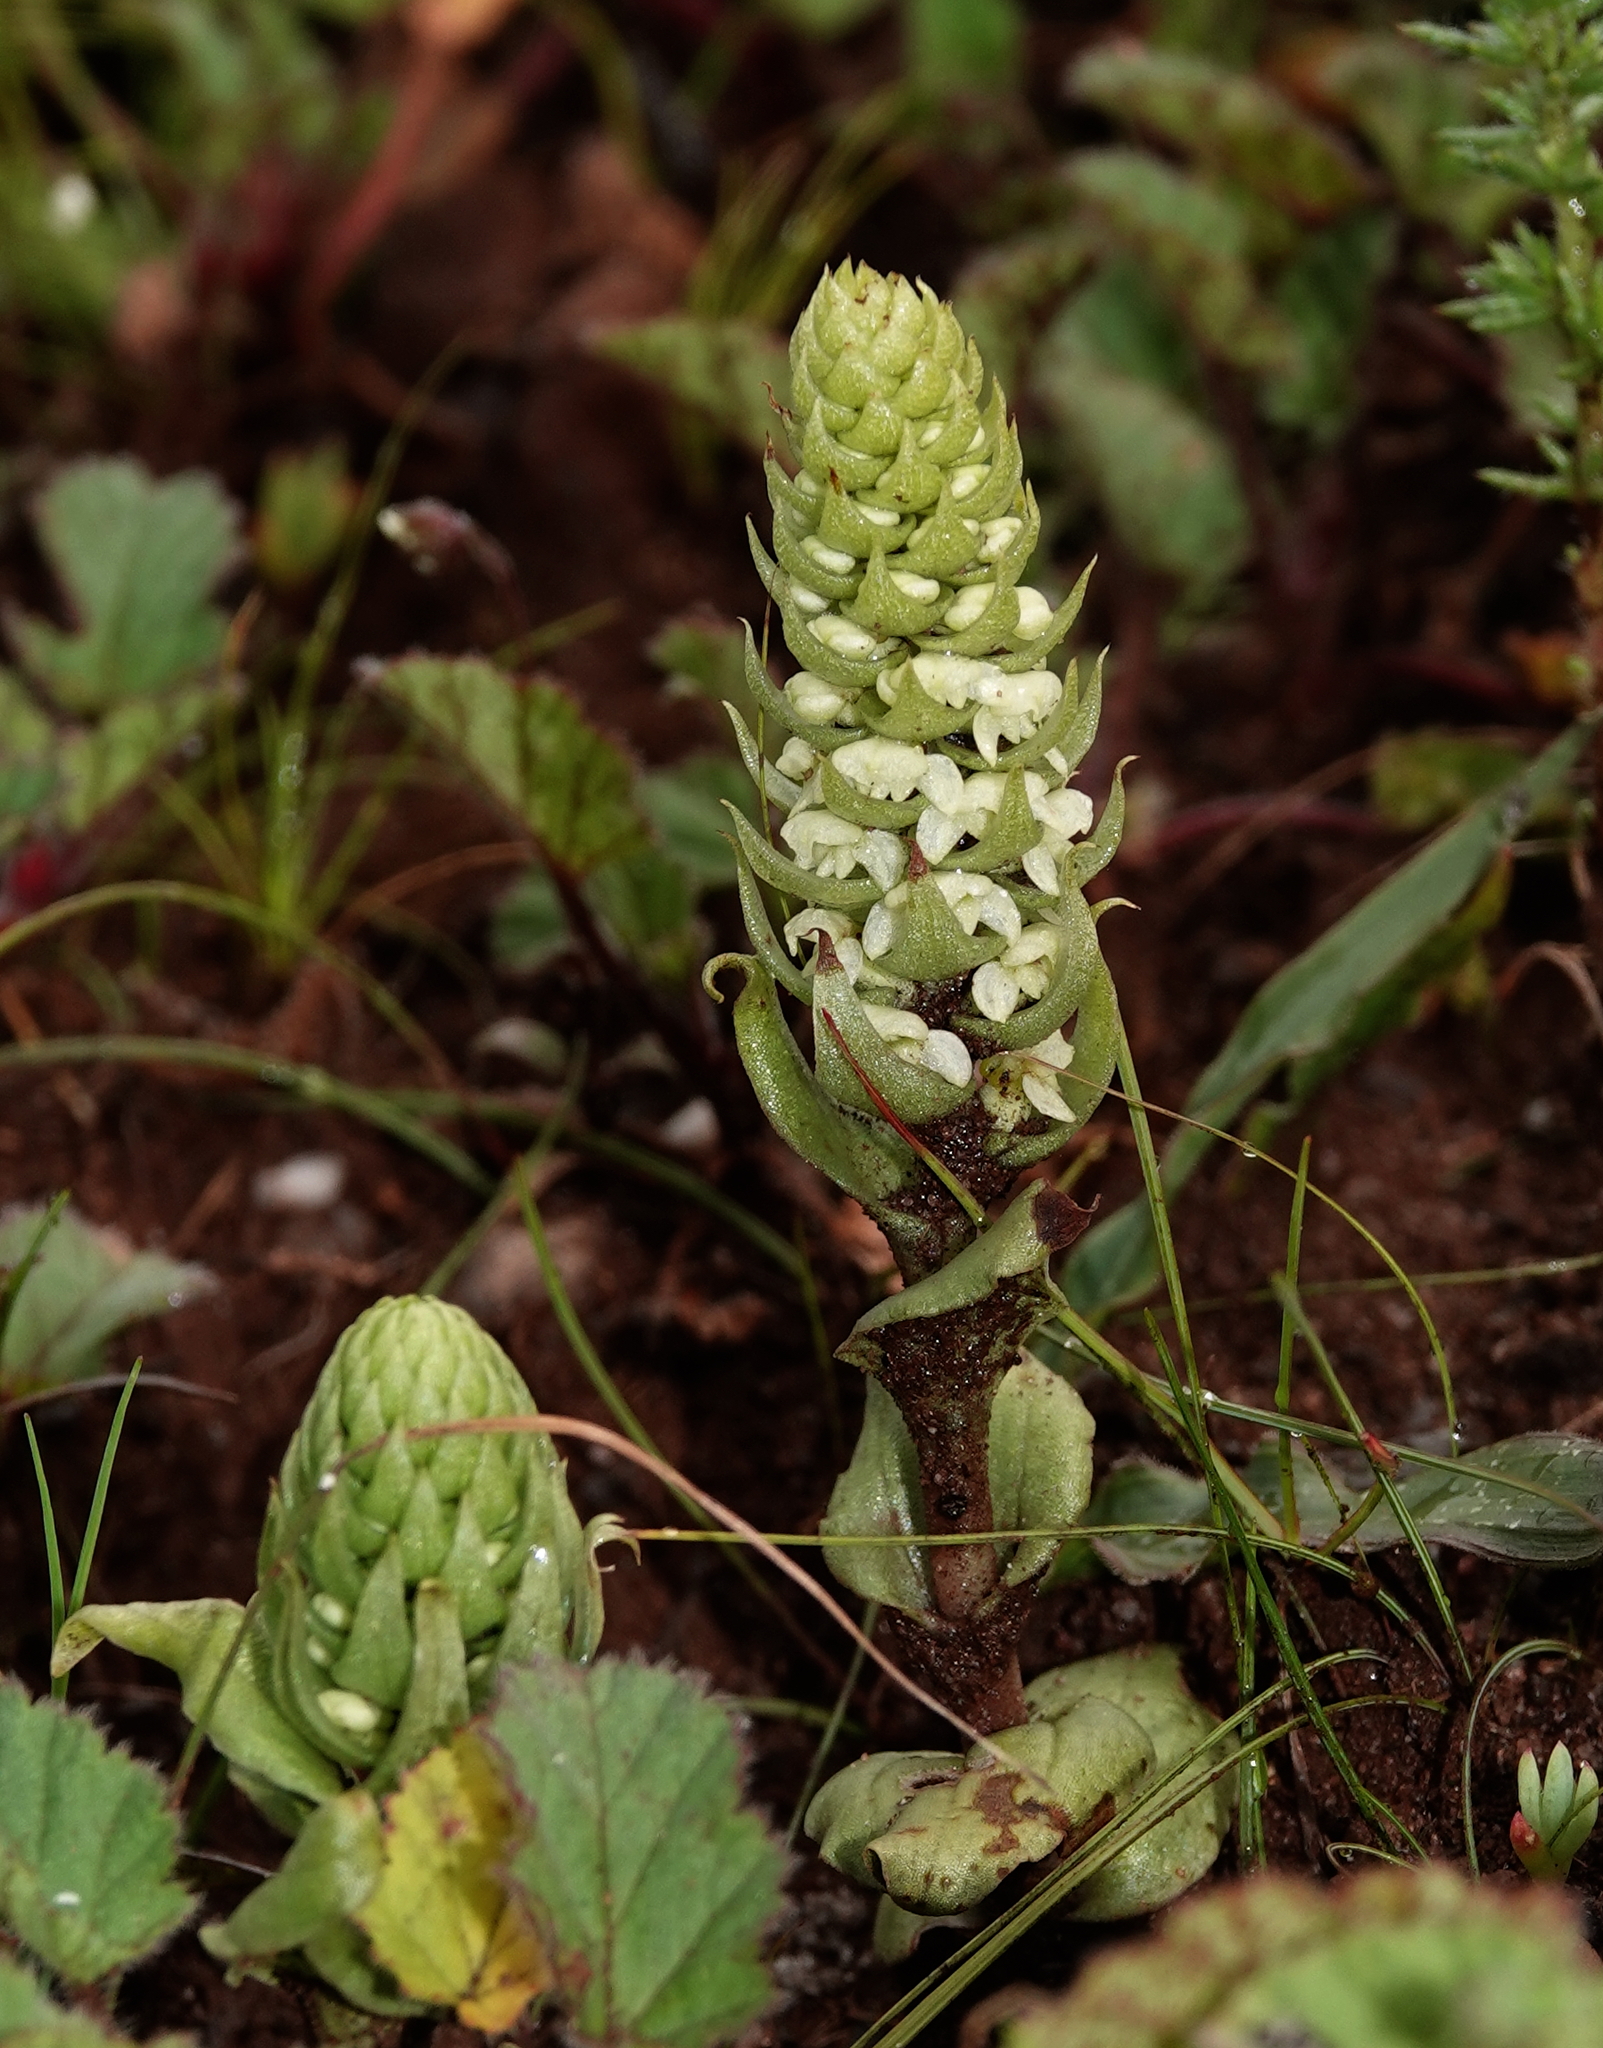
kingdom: Plantae
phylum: Tracheophyta
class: Liliopsida
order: Asparagales
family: Orchidaceae
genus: Satyrium
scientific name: Satyrium bicallosum
